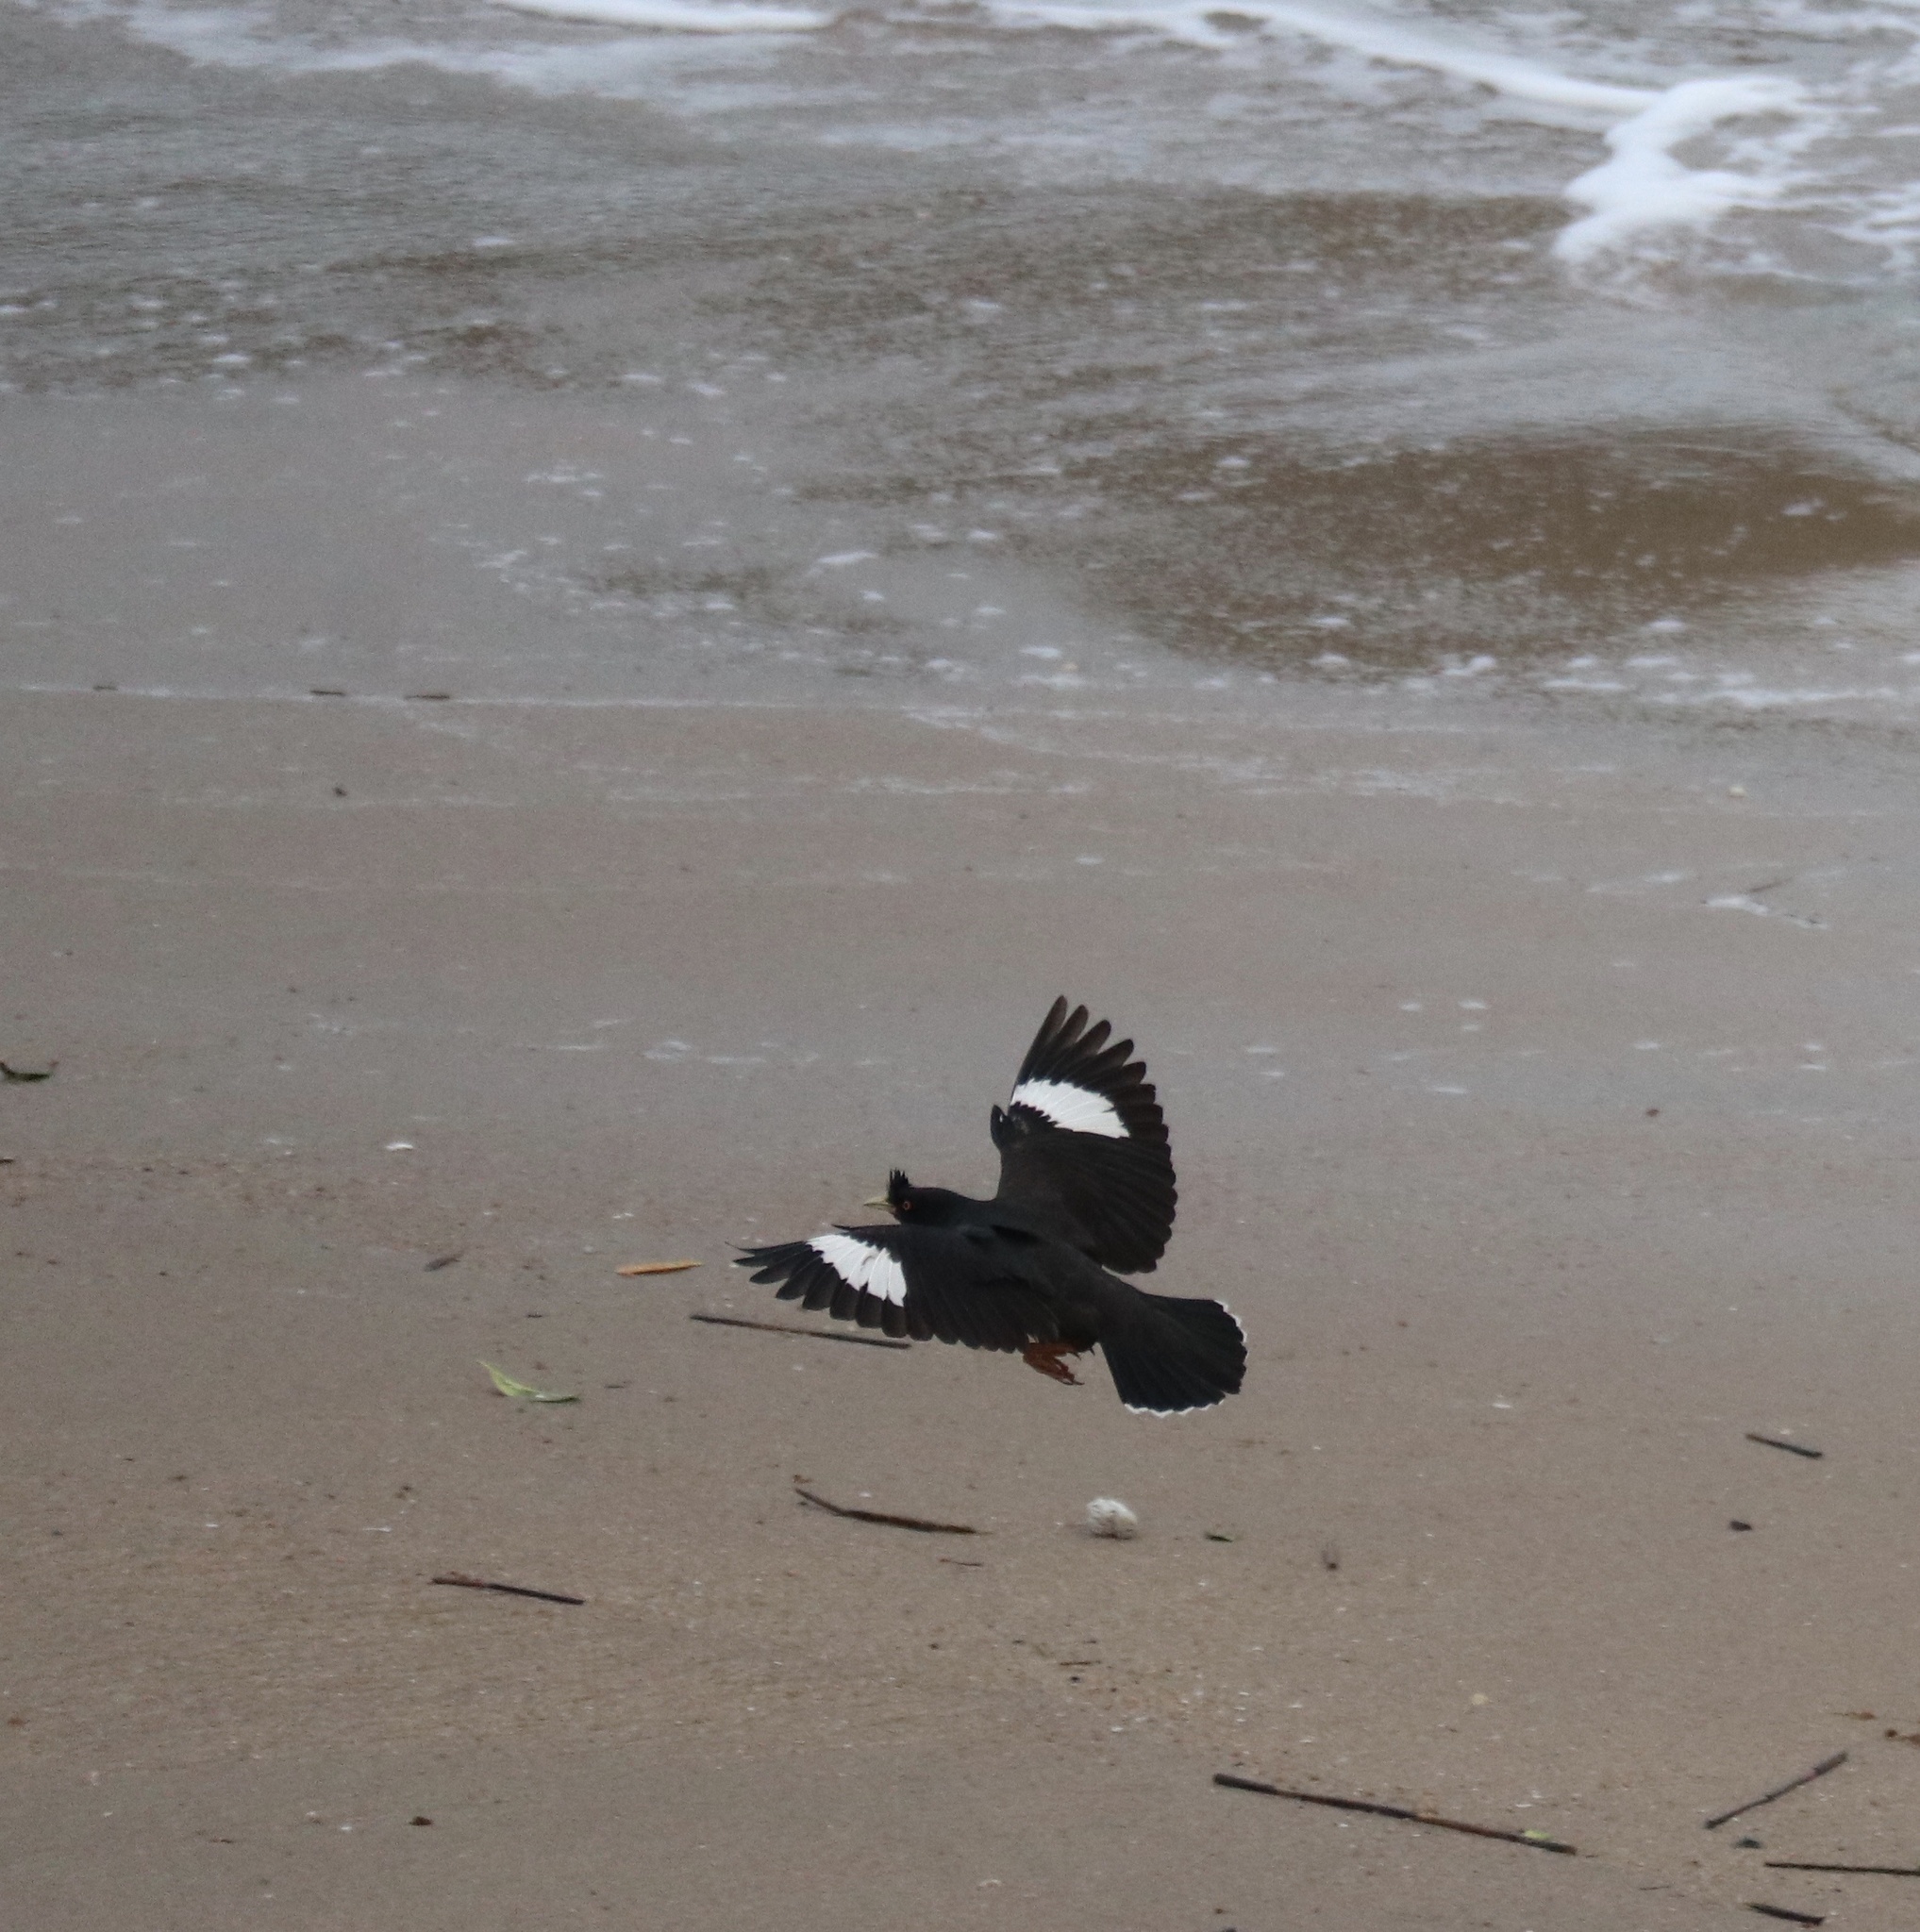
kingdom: Animalia
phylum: Chordata
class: Aves
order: Passeriformes
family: Sturnidae
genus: Acridotheres
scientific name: Acridotheres cristatellus
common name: Crested myna
